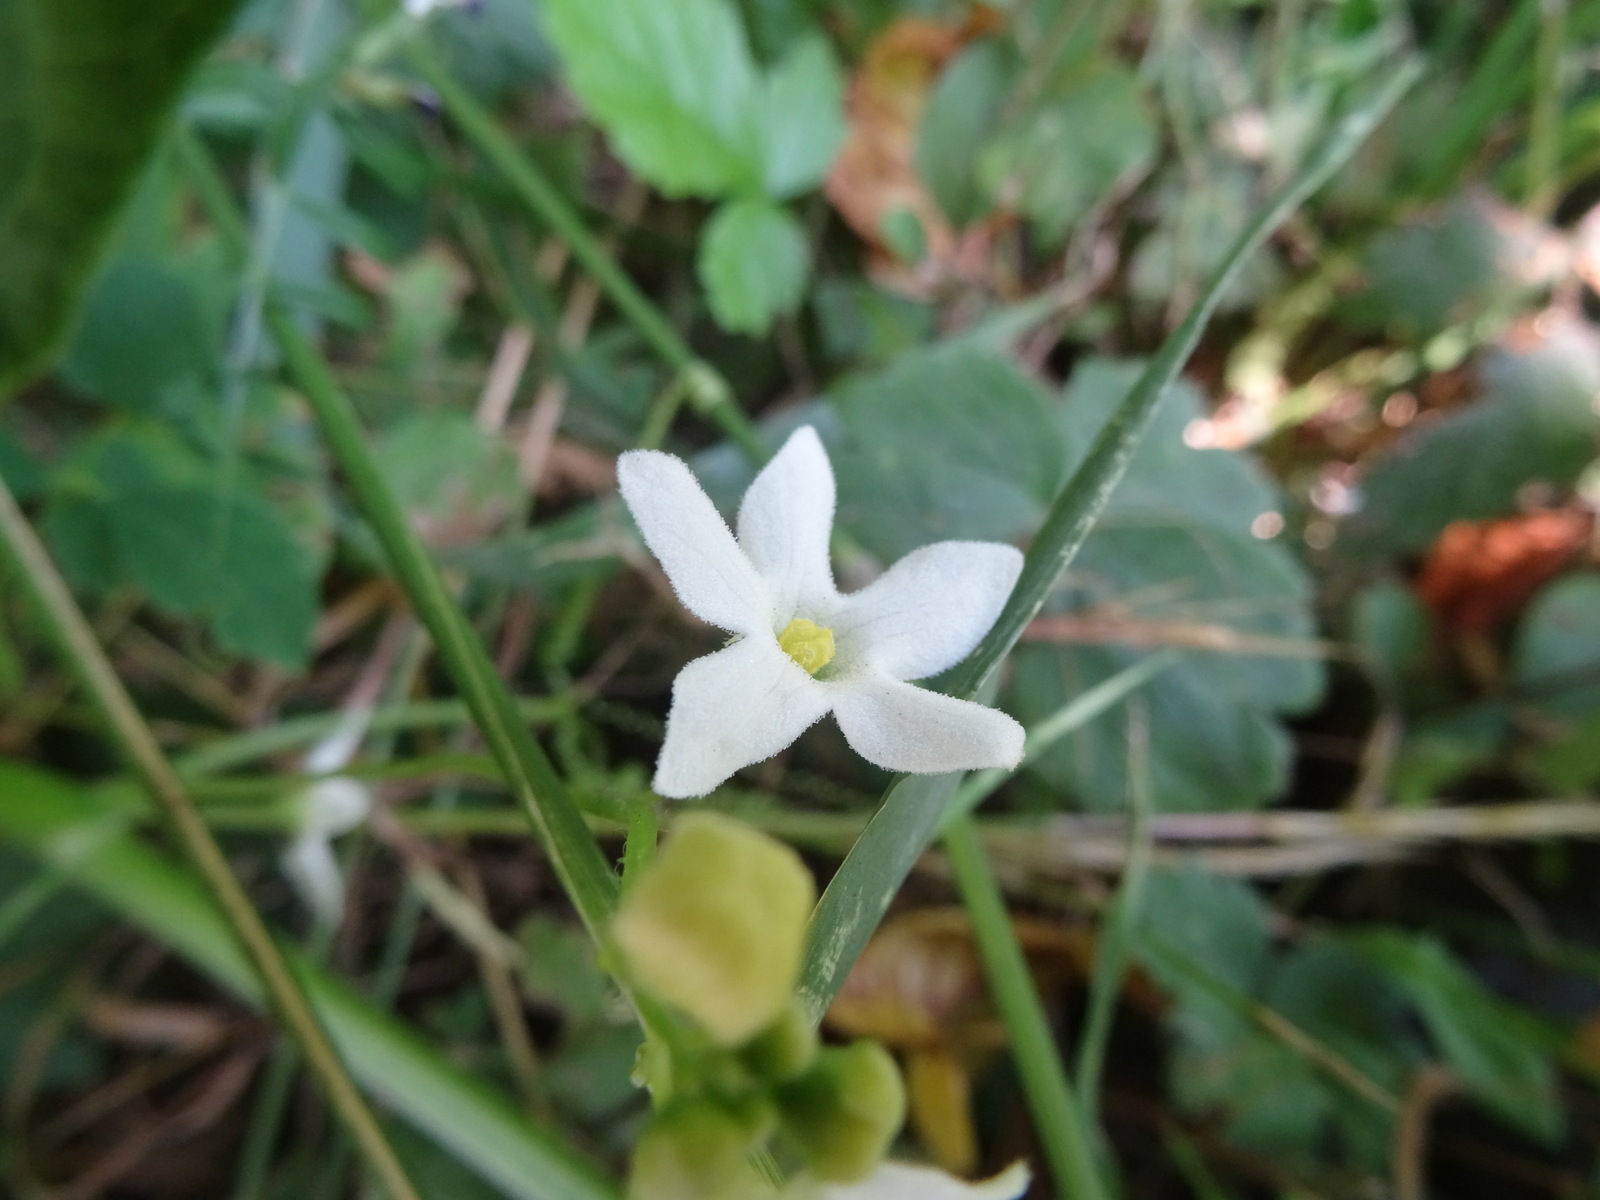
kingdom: Plantae
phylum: Tracheophyta
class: Magnoliopsida
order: Cucurbitales
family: Cucurbitaceae
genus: Marah
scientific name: Marah oregana
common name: Coastal manroot
